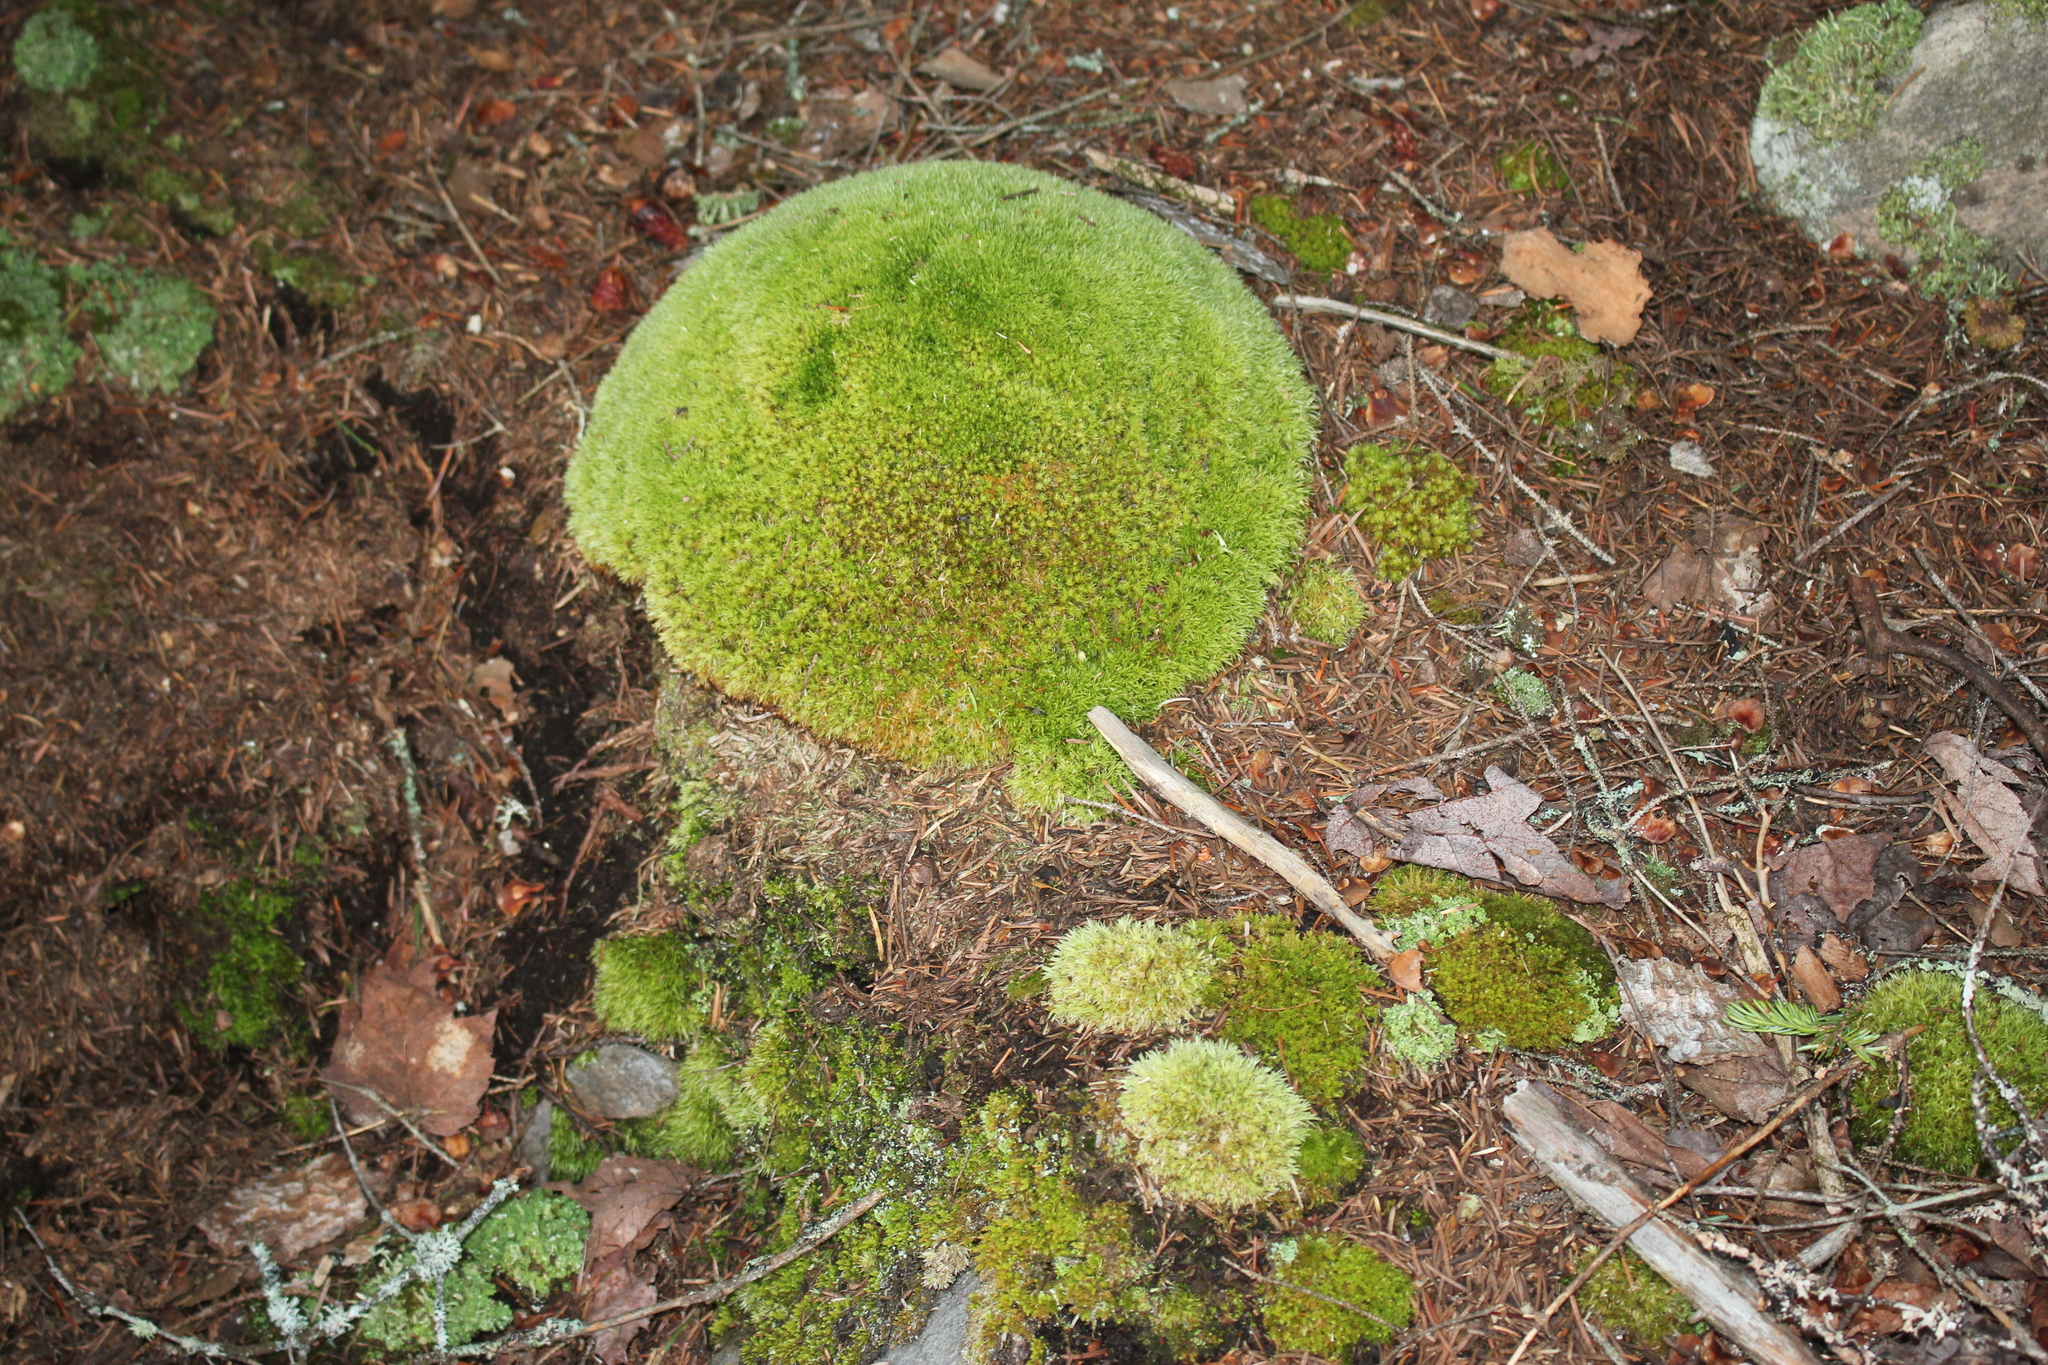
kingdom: Plantae
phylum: Bryophyta
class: Bryopsida
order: Dicranales
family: Leucobryaceae
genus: Leucobryum
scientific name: Leucobryum glaucum
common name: Large white-moss
